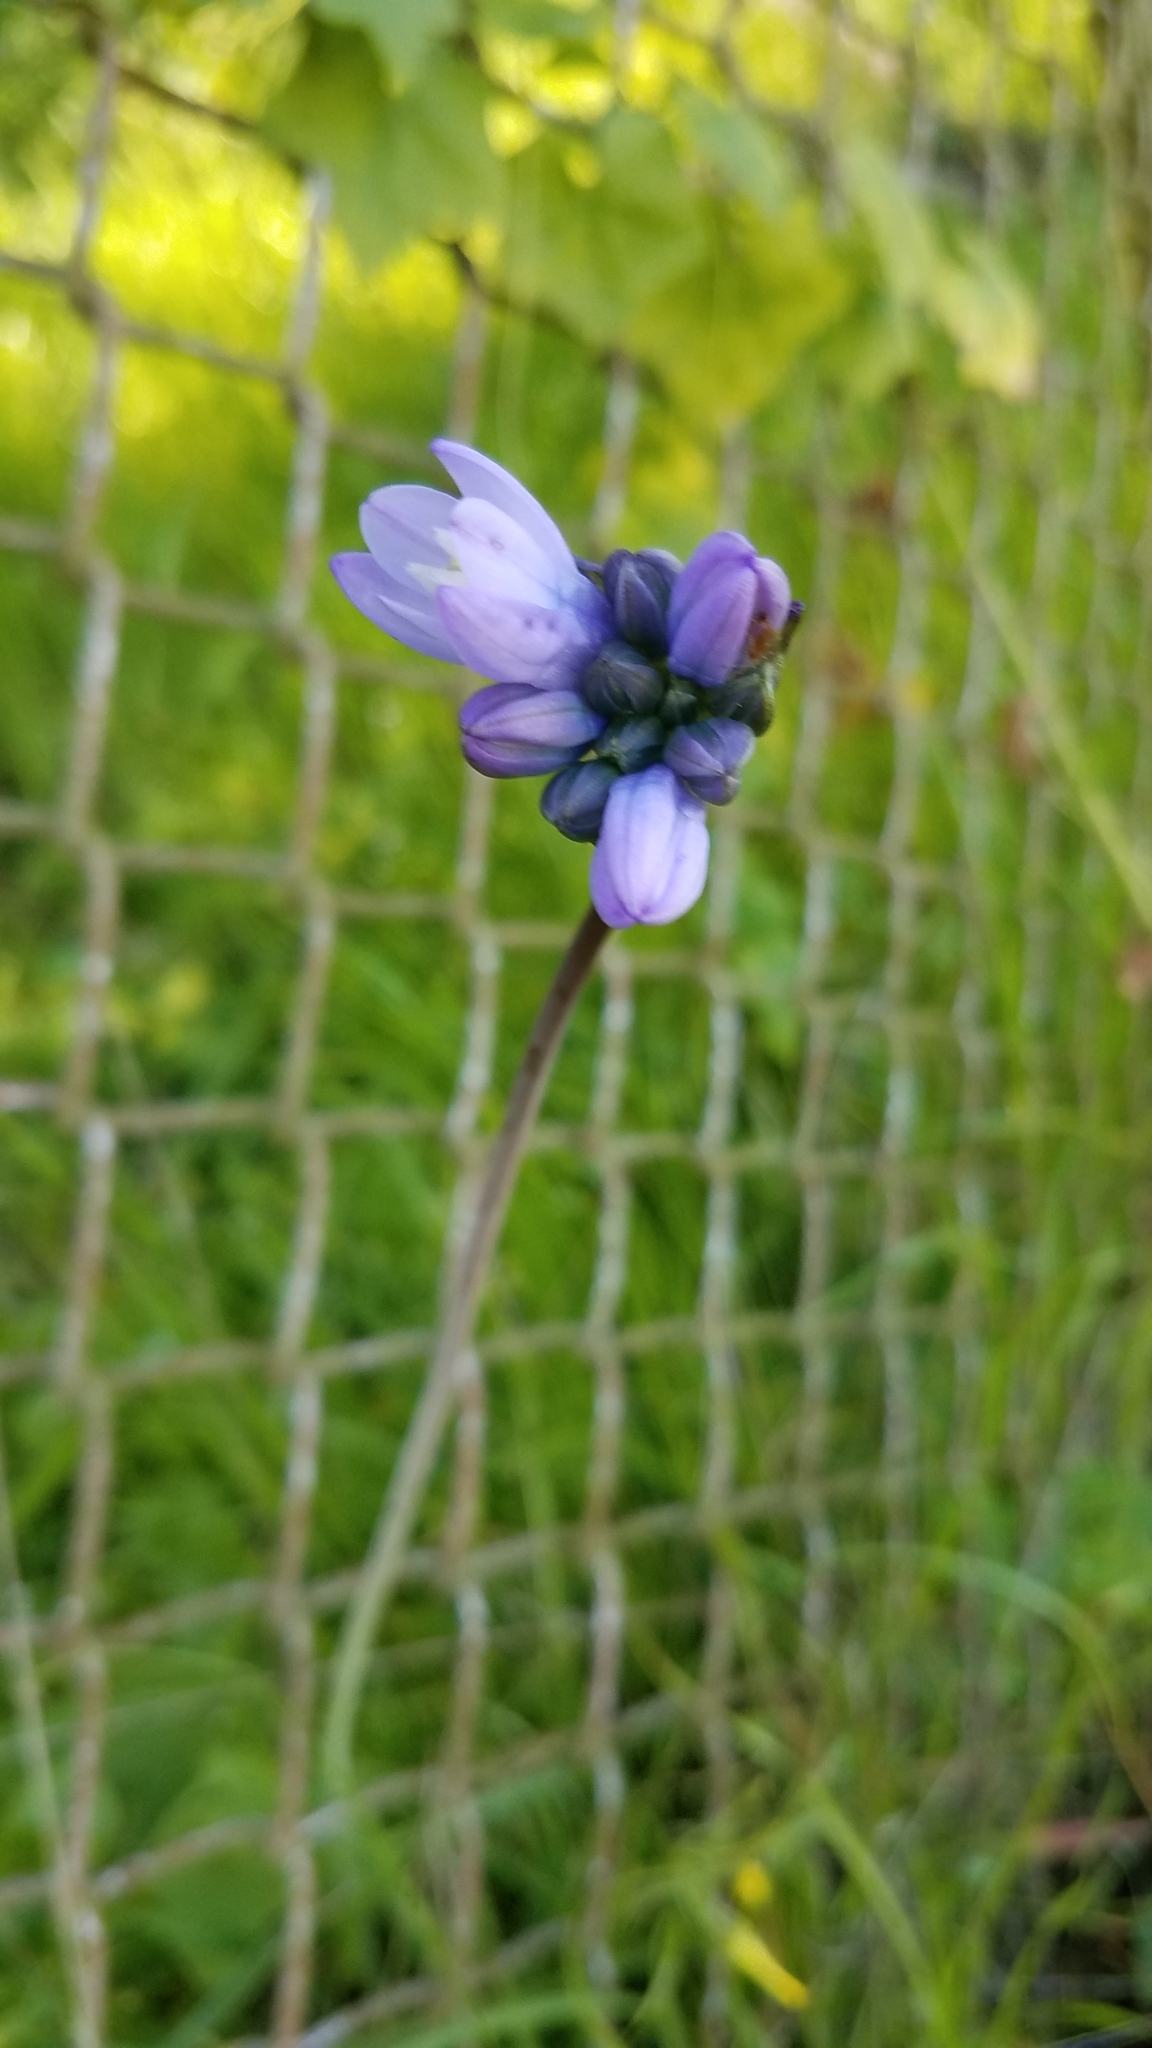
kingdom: Plantae
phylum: Tracheophyta
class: Liliopsida
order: Asparagales
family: Asparagaceae
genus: Dipterostemon
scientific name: Dipterostemon capitatus
